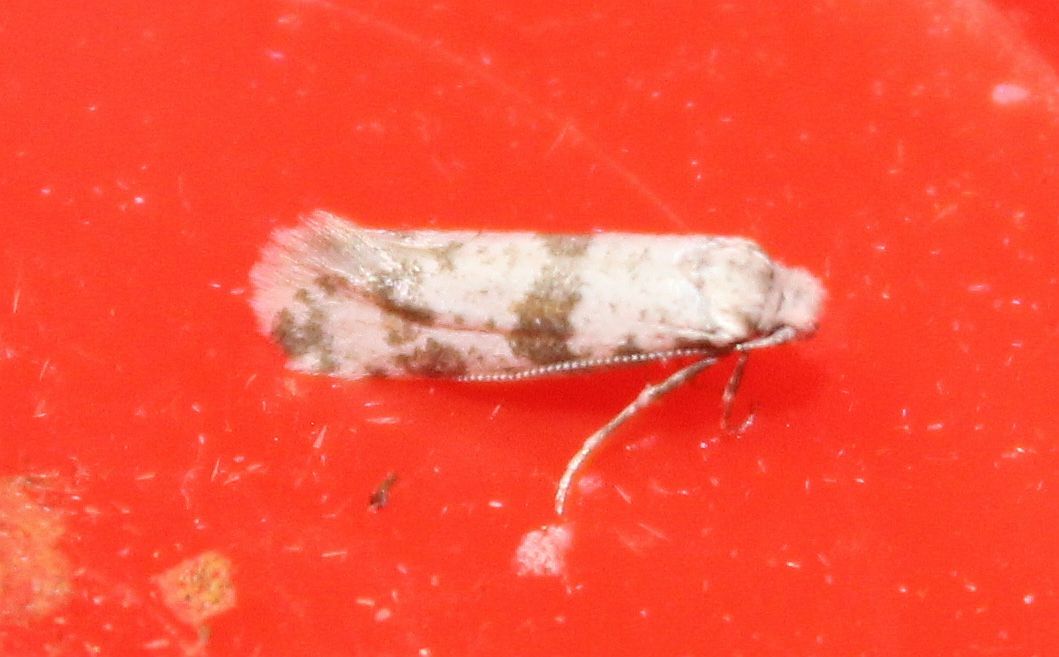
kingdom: Animalia
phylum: Arthropoda
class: Insecta
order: Lepidoptera
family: Yponomeutidae
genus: Scythropia
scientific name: Scythropia crataegella
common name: Hawthorn moth
